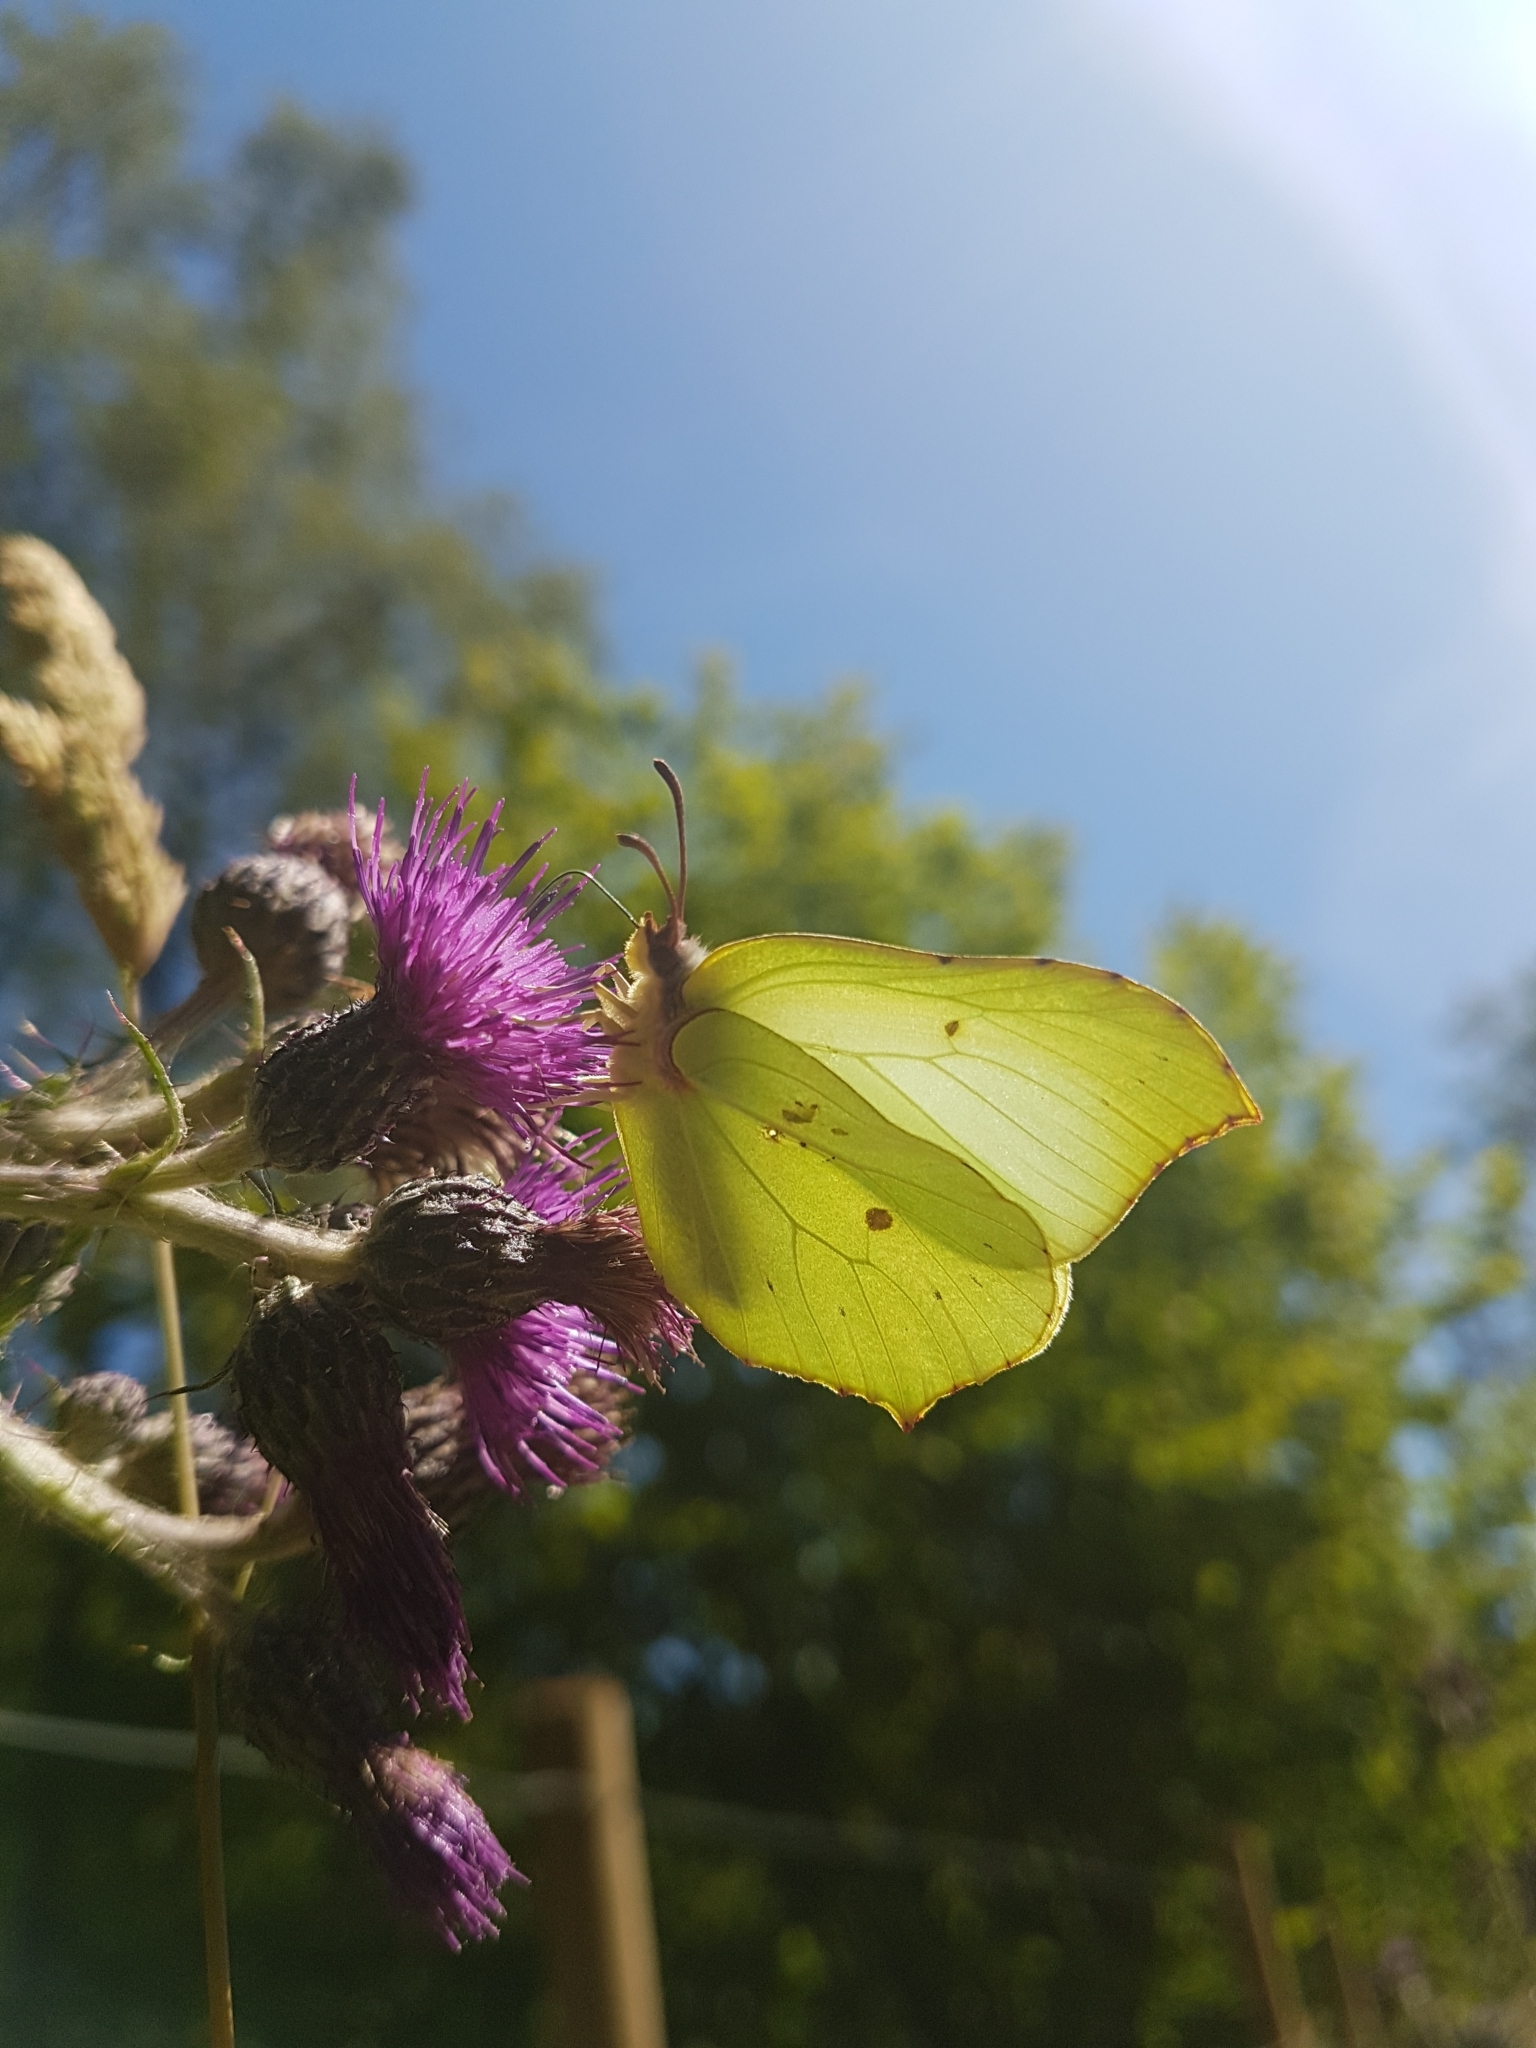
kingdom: Animalia
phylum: Arthropoda
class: Insecta
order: Lepidoptera
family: Pieridae
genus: Gonepteryx
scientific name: Gonepteryx rhamni
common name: Brimstone
